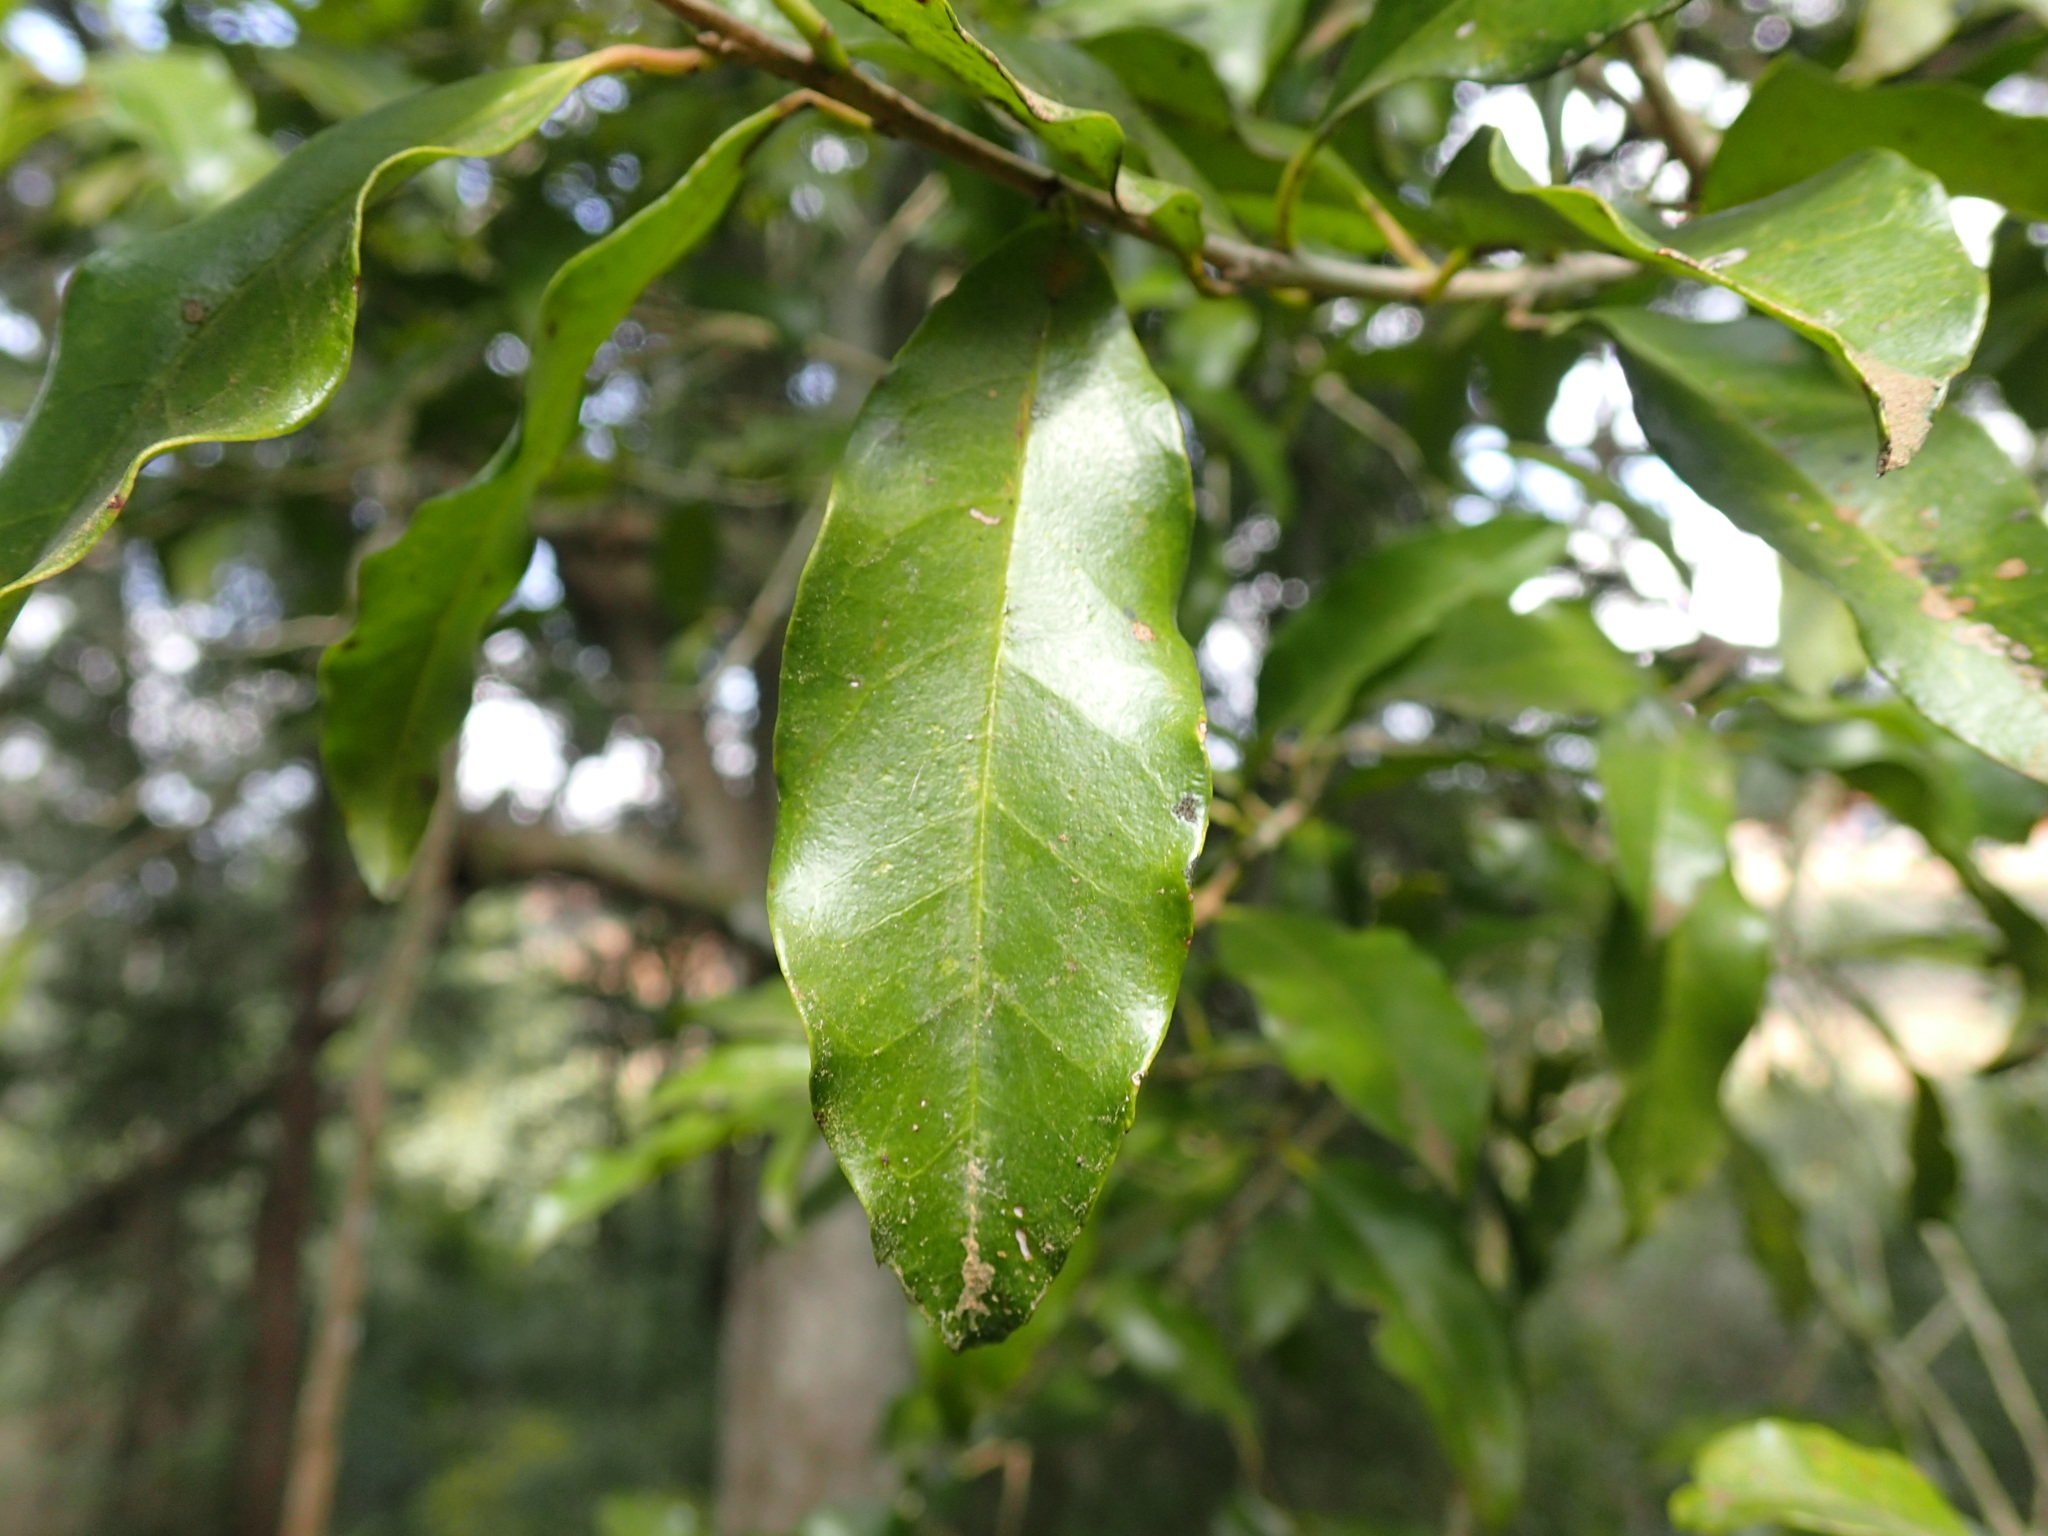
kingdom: Plantae
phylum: Tracheophyta
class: Magnoliopsida
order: Aquifoliales
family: Aquifoliaceae
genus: Ilex
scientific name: Ilex mitis
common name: African holly
